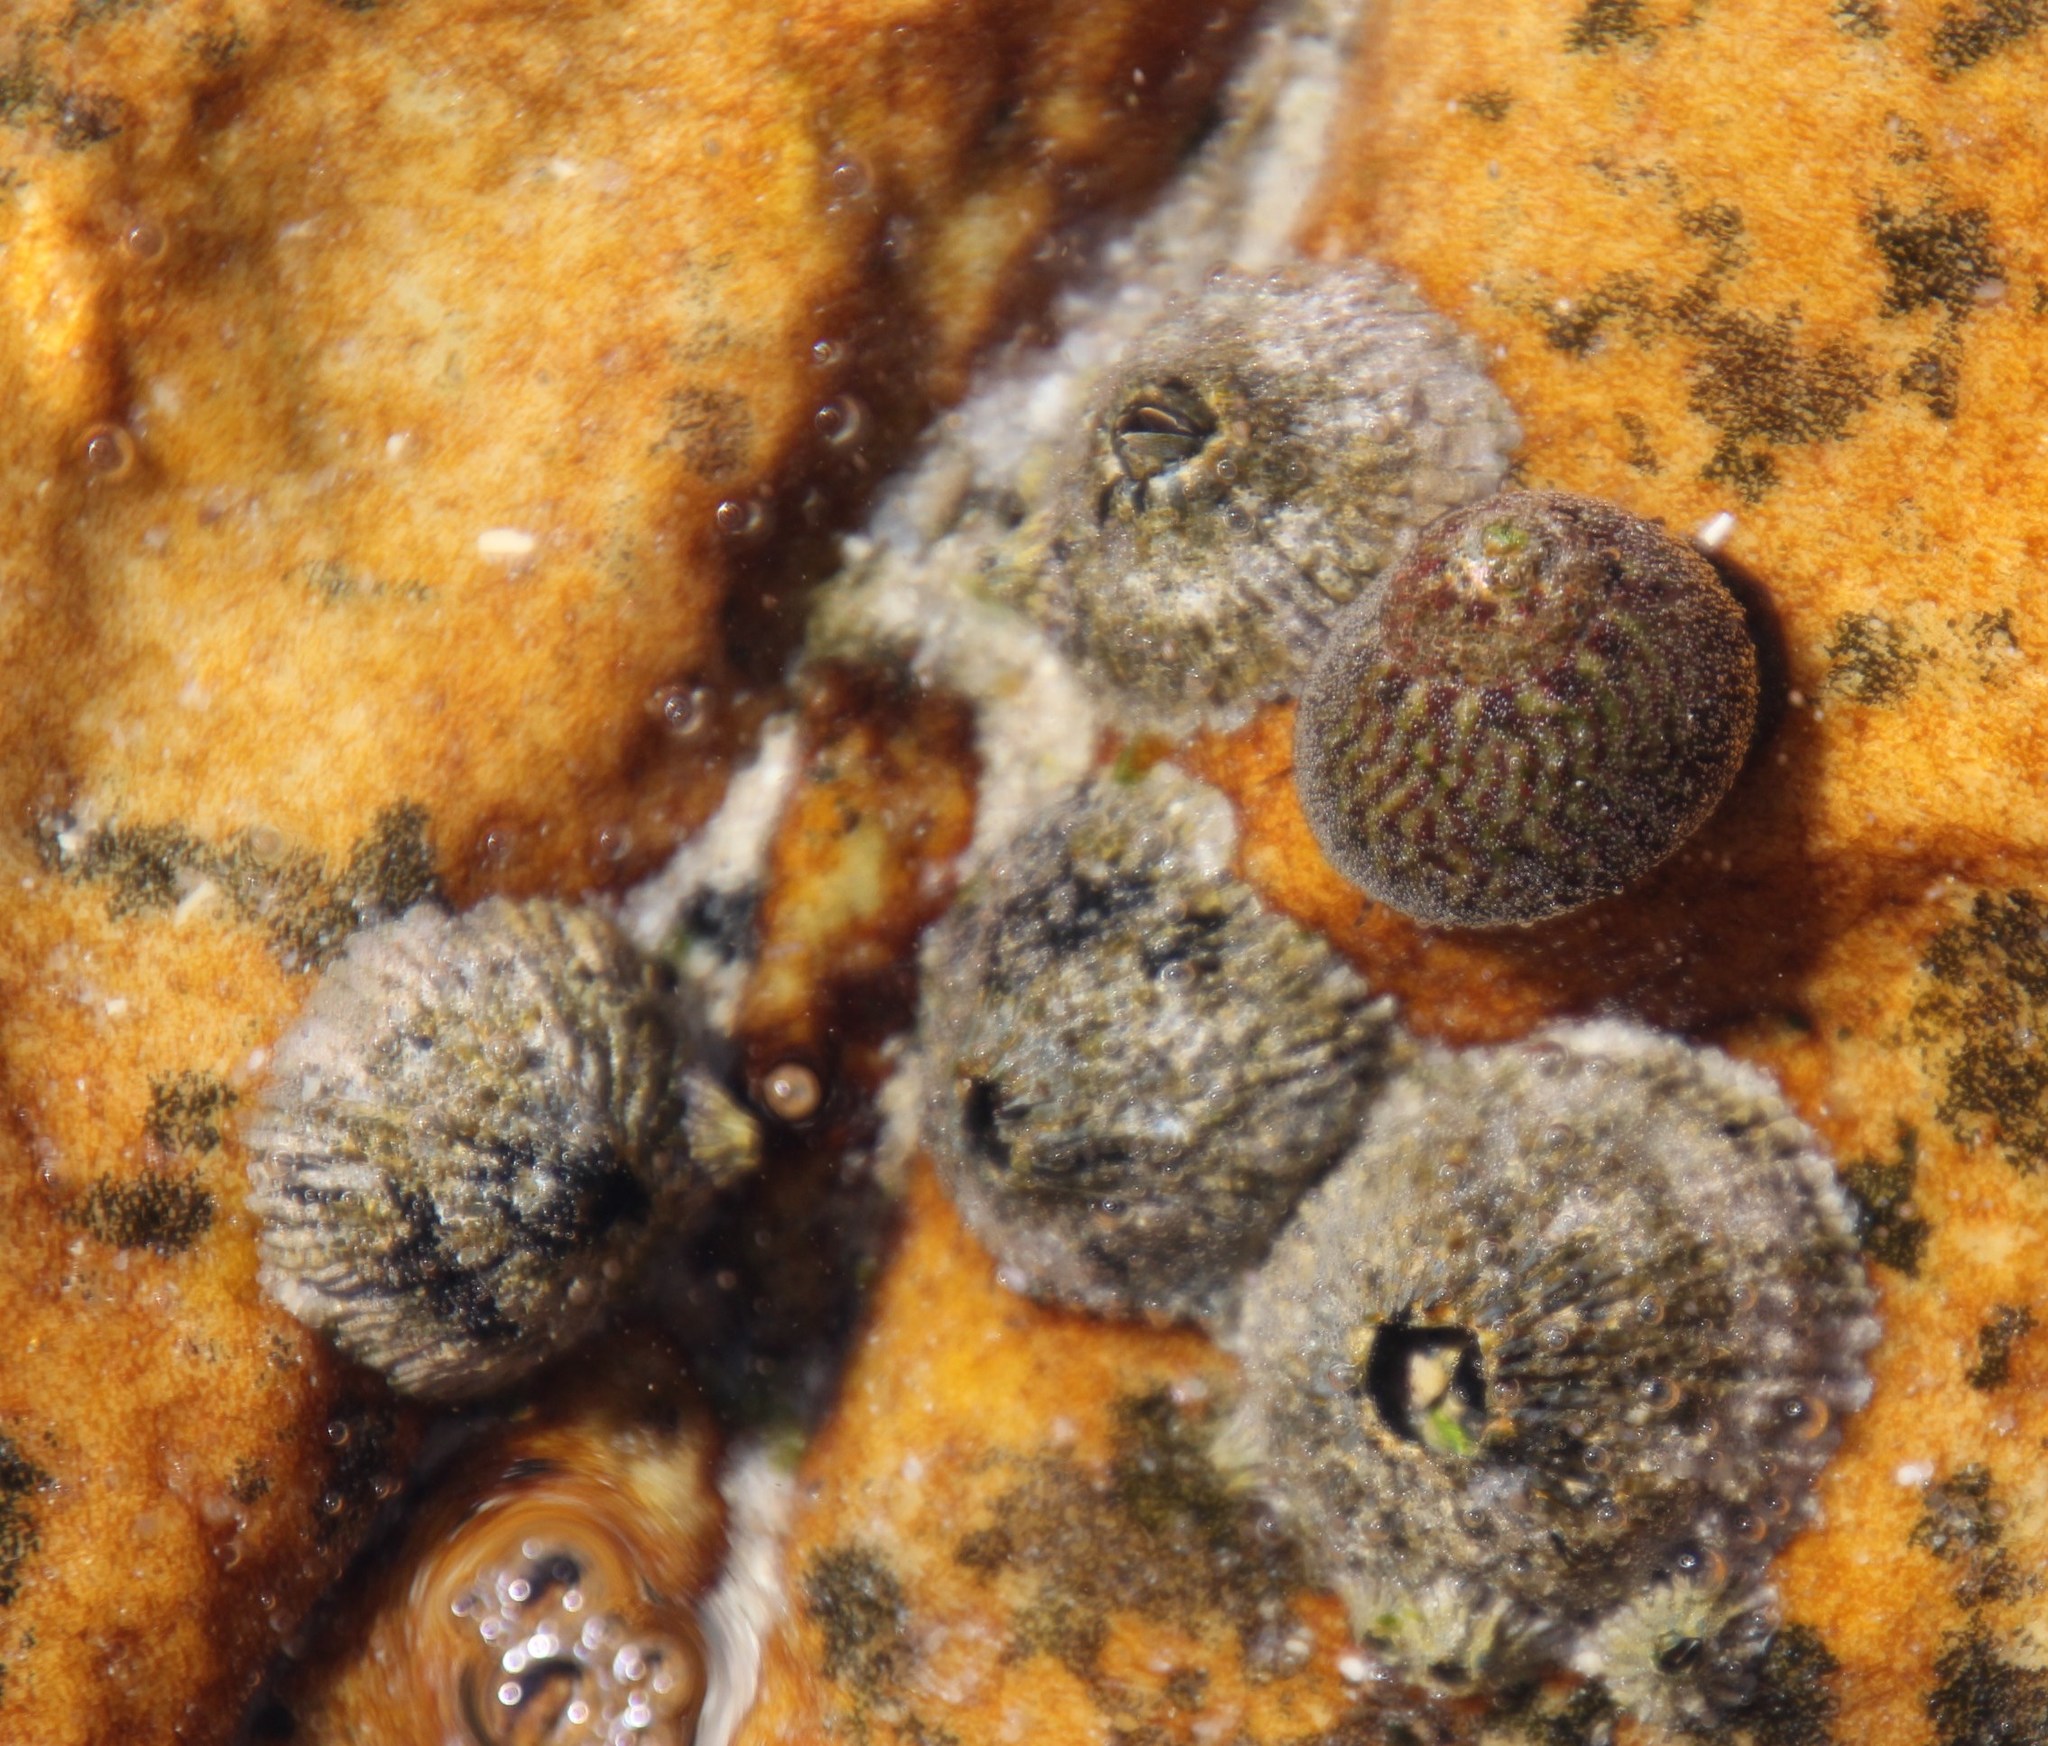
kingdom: Animalia
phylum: Mollusca
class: Gastropoda
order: Trochida
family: Trochidae
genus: Oxystele
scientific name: Oxystele antoni
